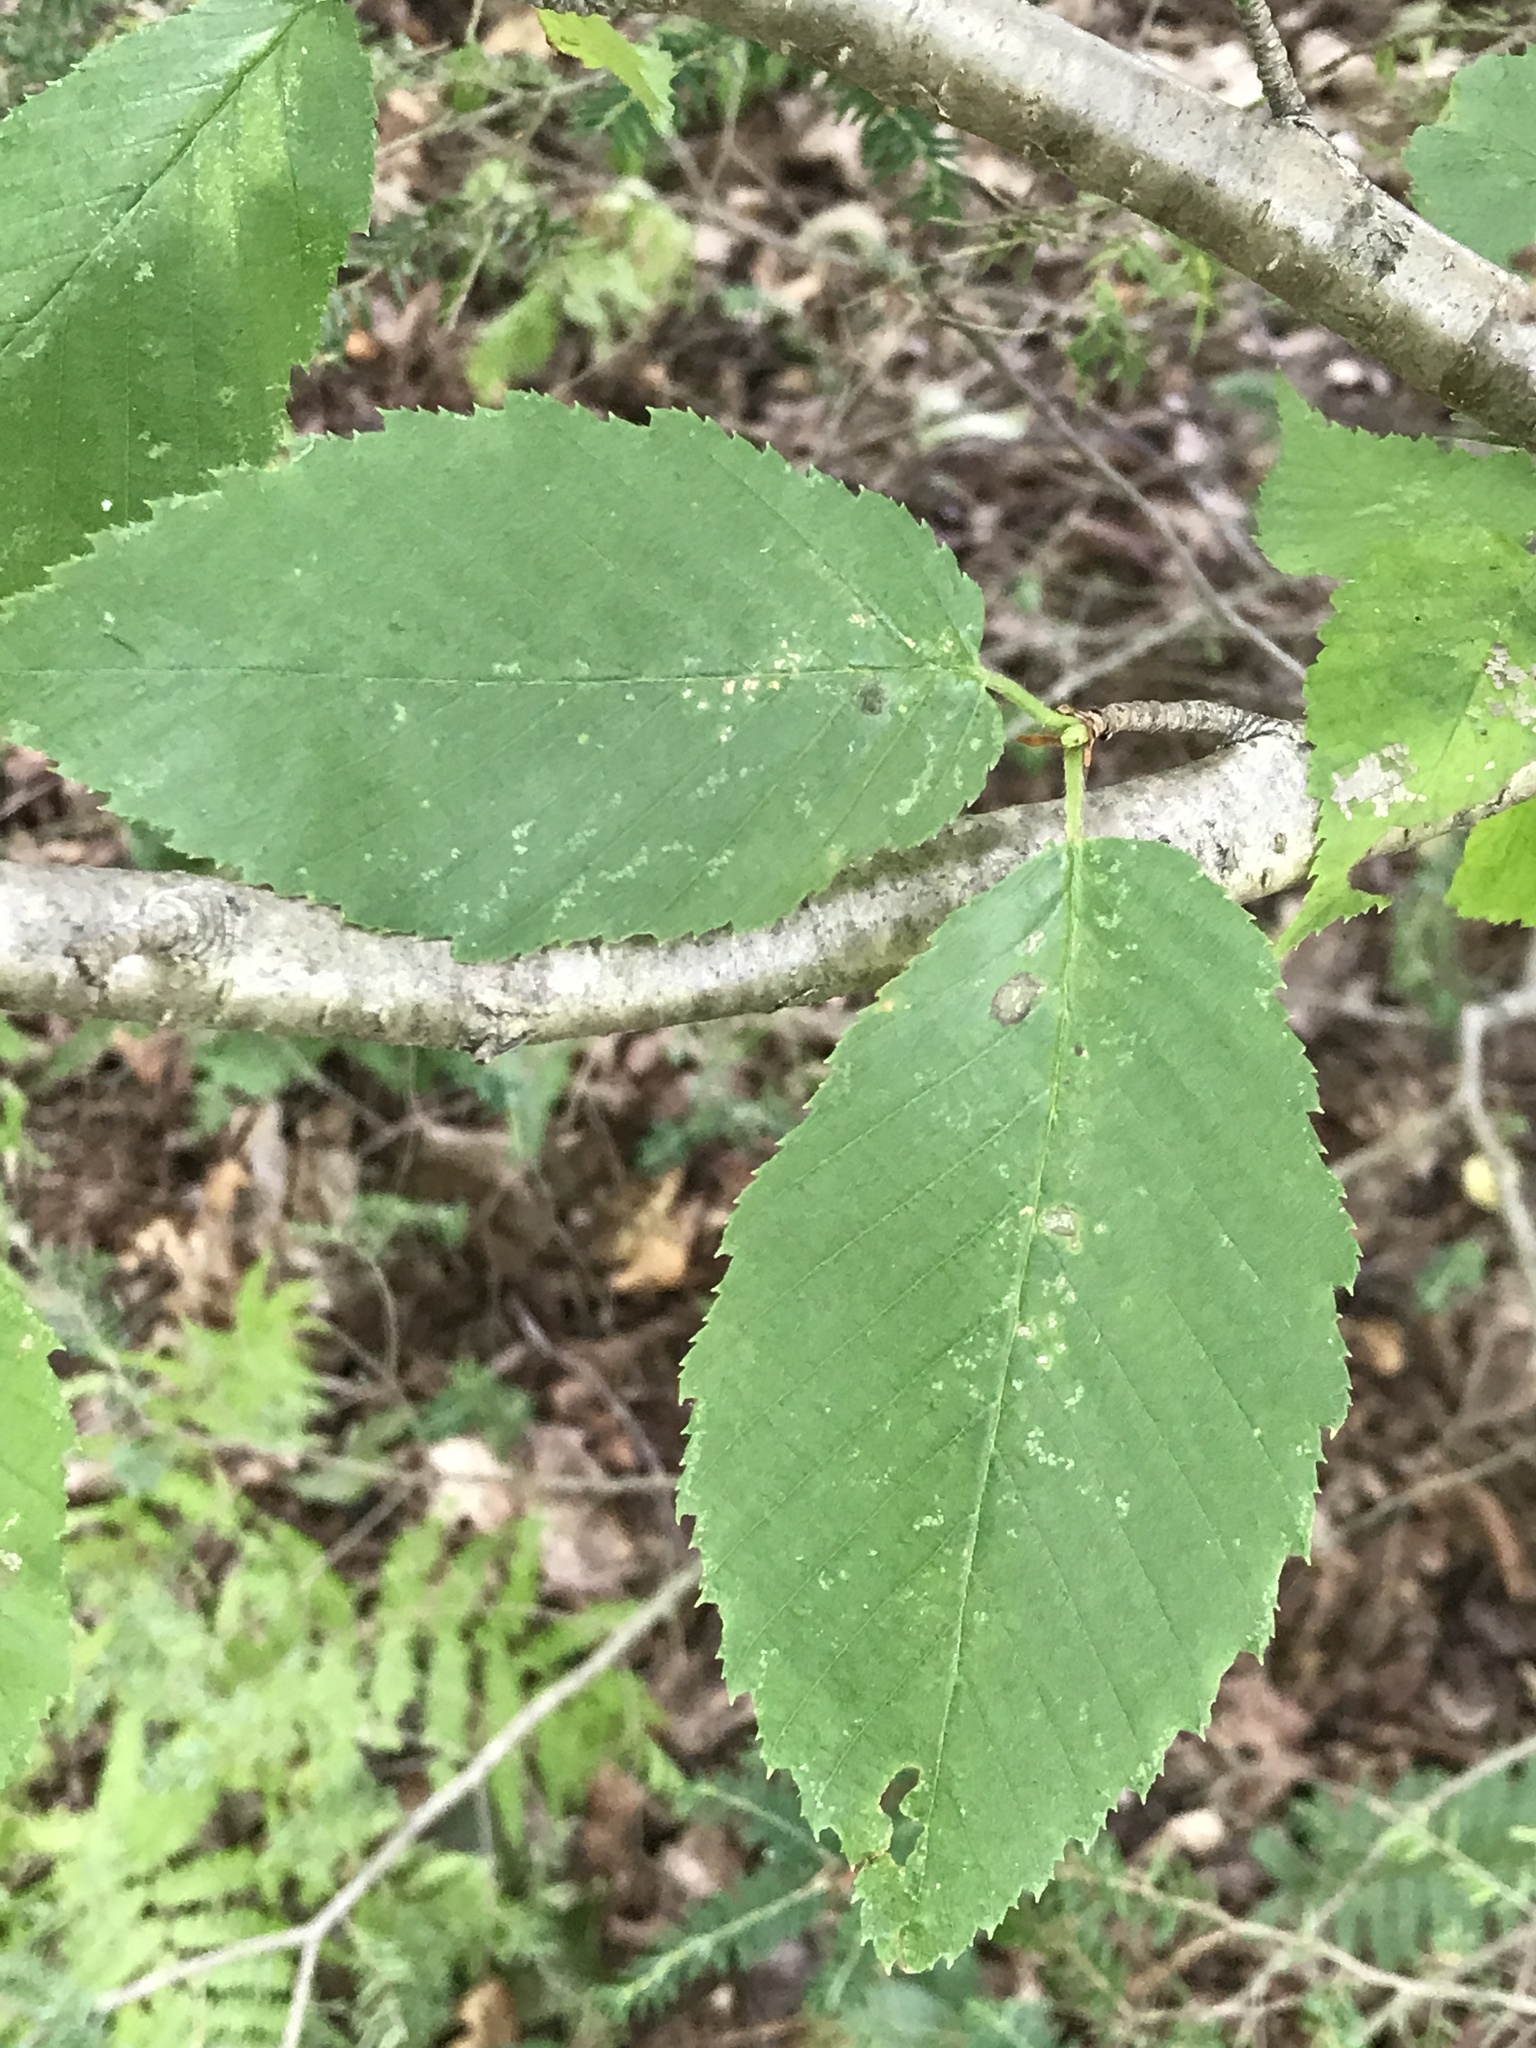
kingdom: Plantae
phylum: Tracheophyta
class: Magnoliopsida
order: Fagales
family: Betulaceae
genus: Betula
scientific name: Betula alleghaniensis
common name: Yellow birch
